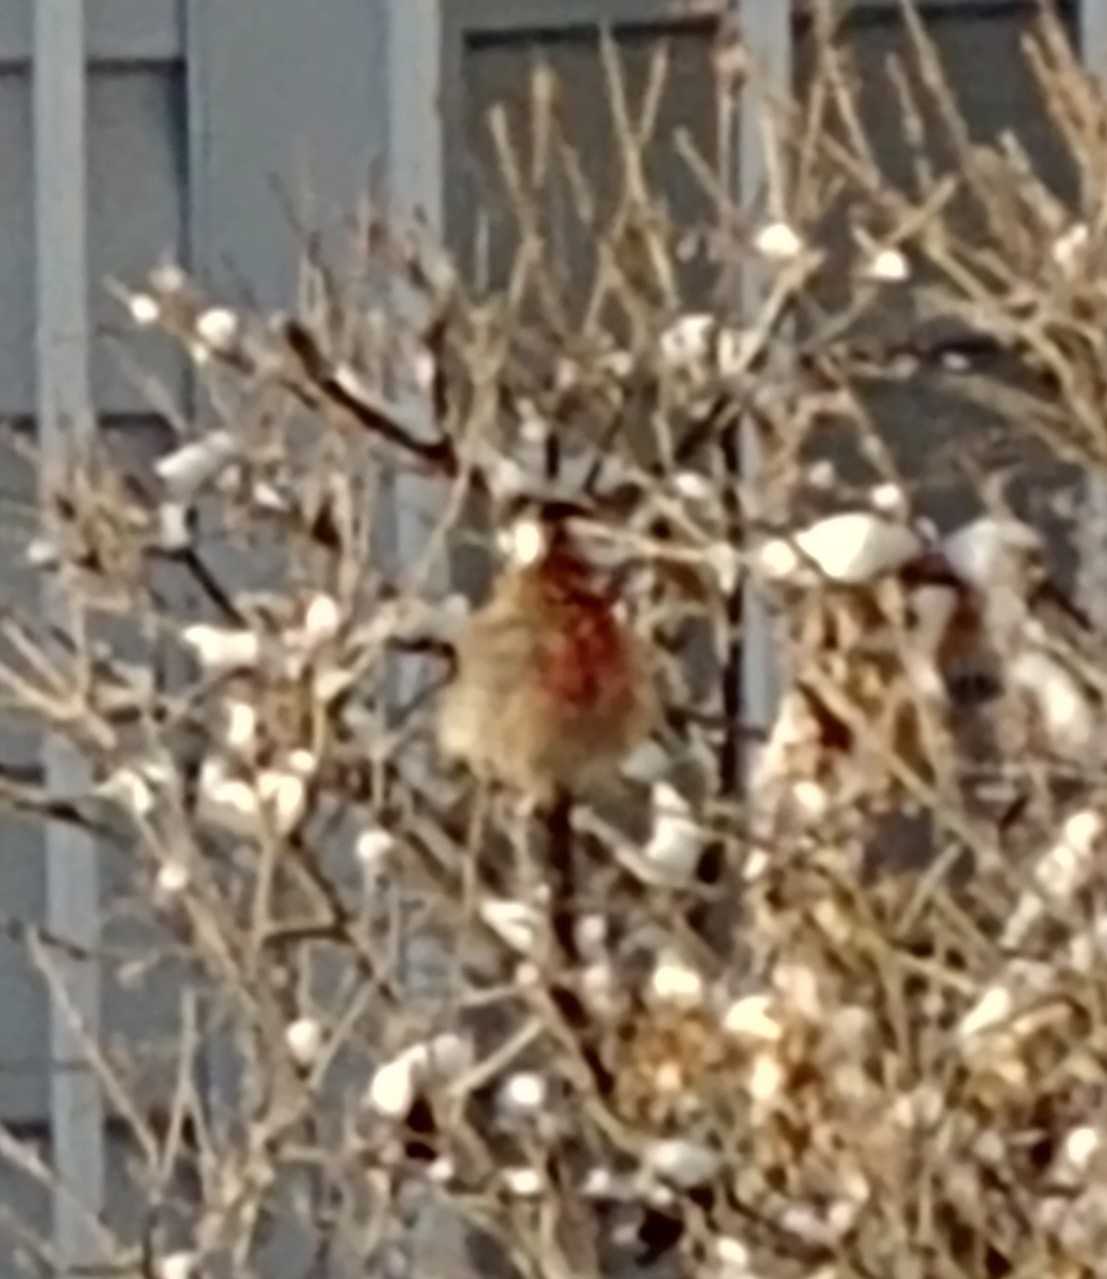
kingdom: Animalia
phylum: Chordata
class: Aves
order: Passeriformes
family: Fringillidae
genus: Haemorhous
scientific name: Haemorhous mexicanus
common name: House finch
